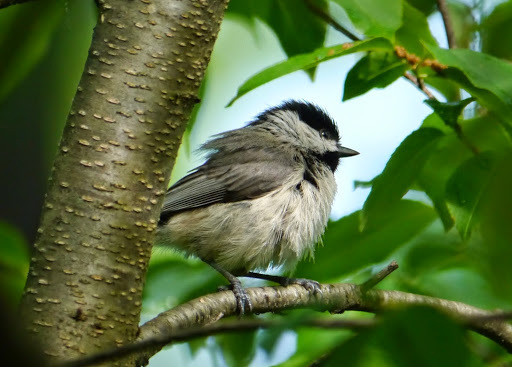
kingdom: Animalia
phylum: Chordata
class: Aves
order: Passeriformes
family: Paridae
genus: Poecile
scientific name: Poecile carolinensis
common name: Carolina chickadee
